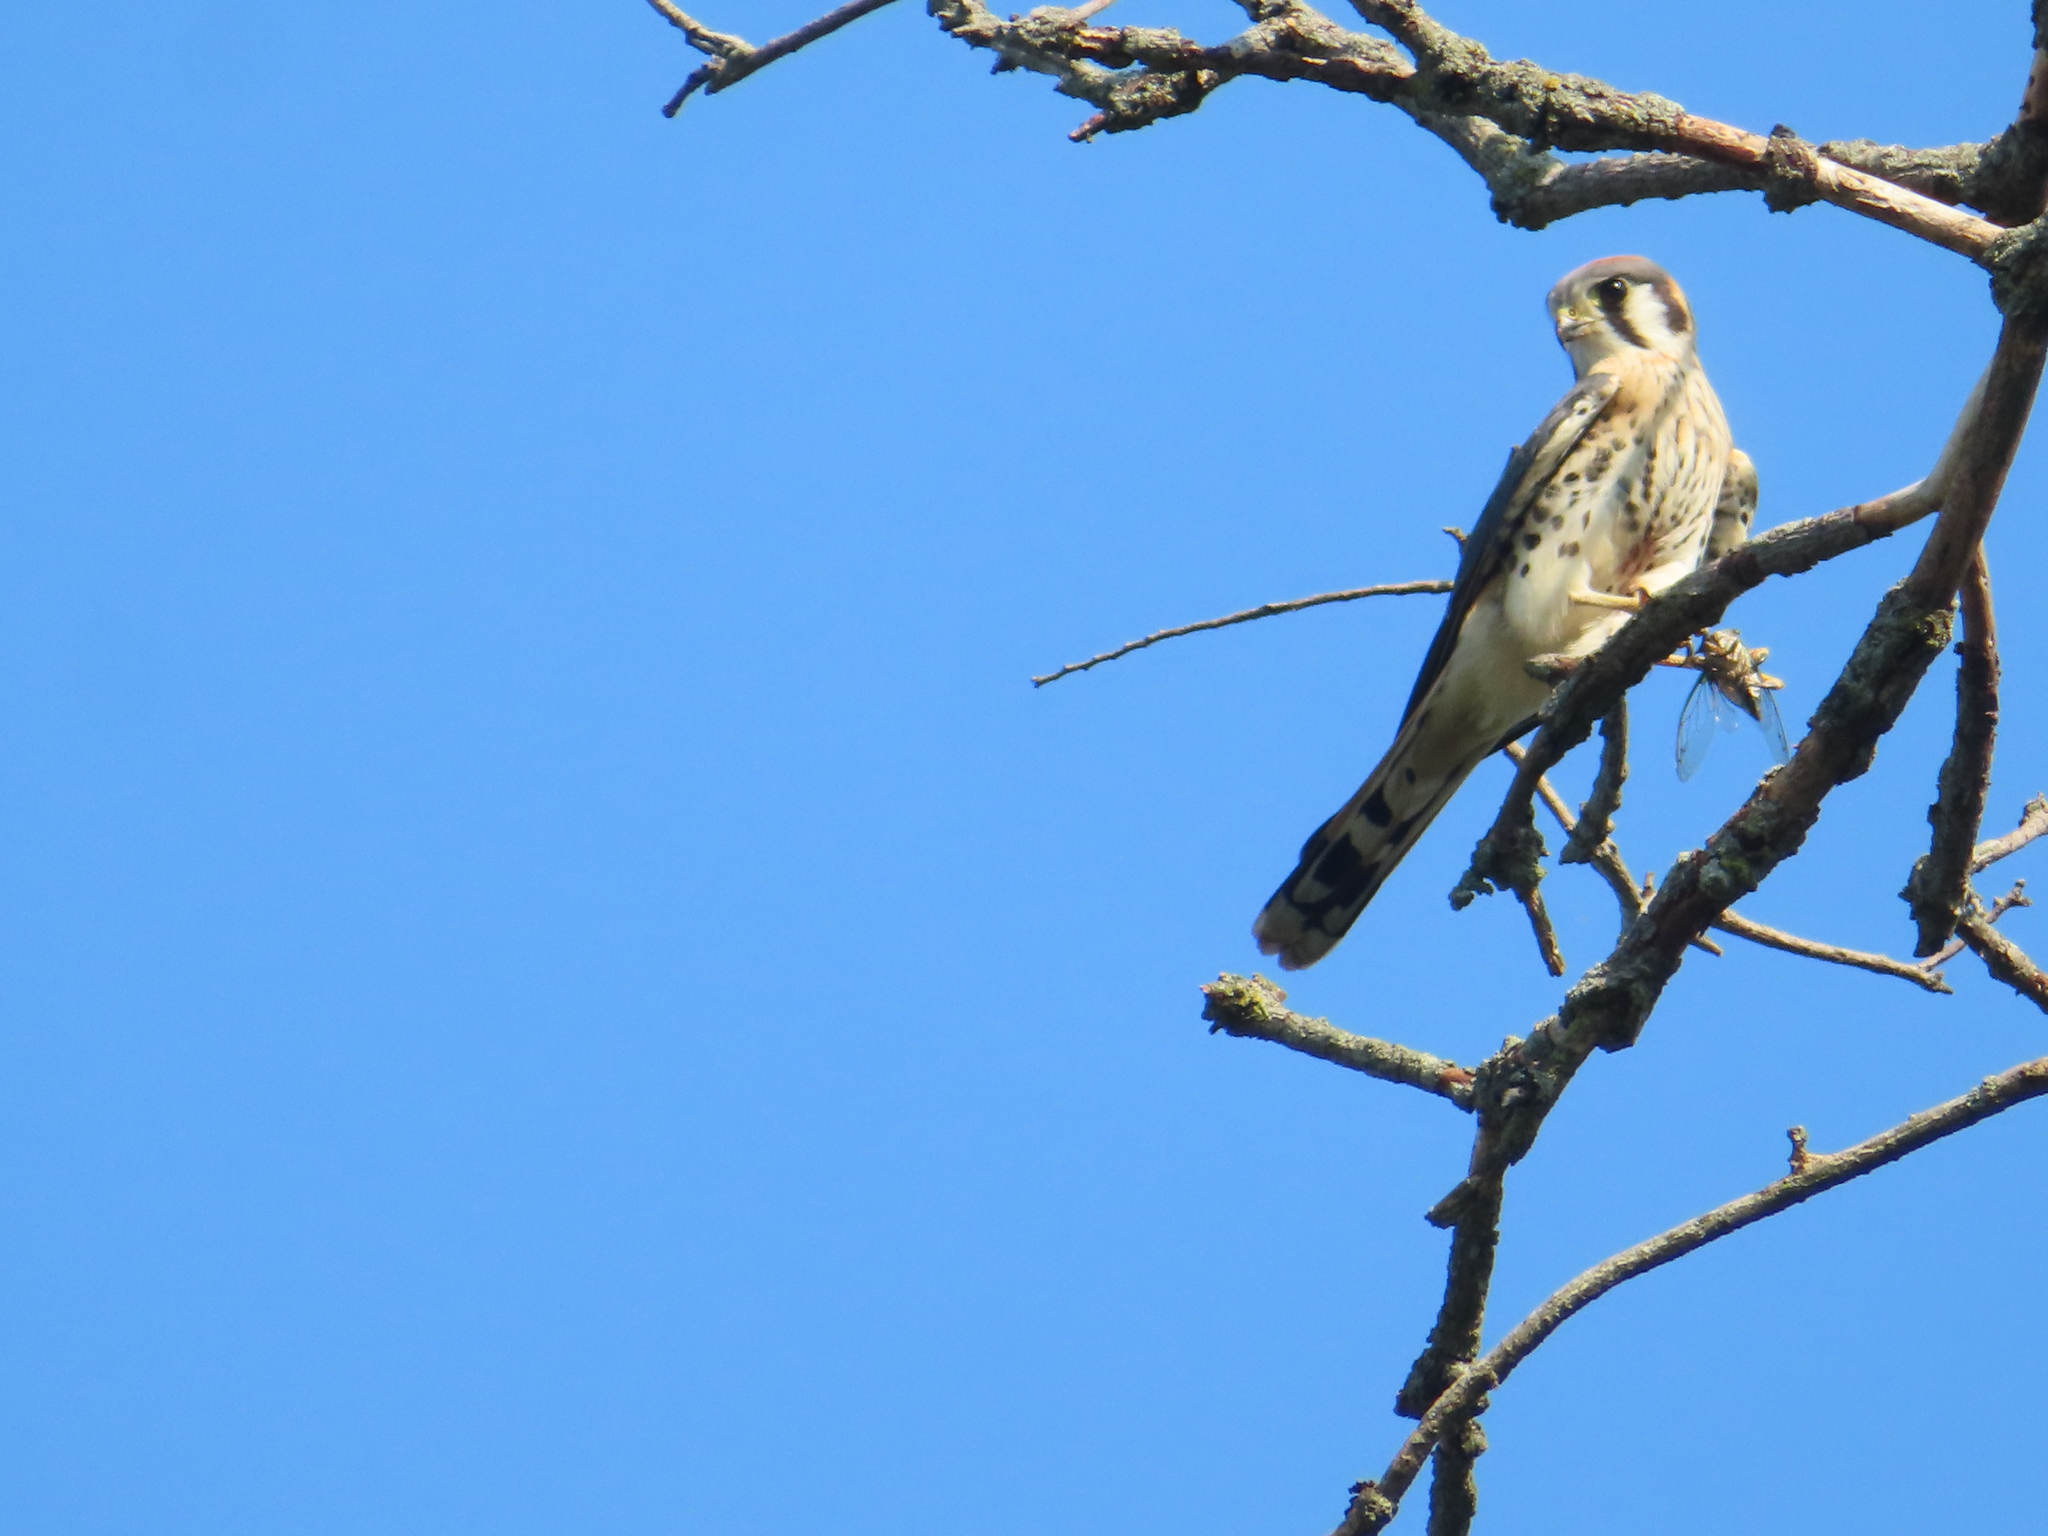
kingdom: Animalia
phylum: Chordata
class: Aves
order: Falconiformes
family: Falconidae
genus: Falco
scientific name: Falco sparverius
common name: American kestrel
